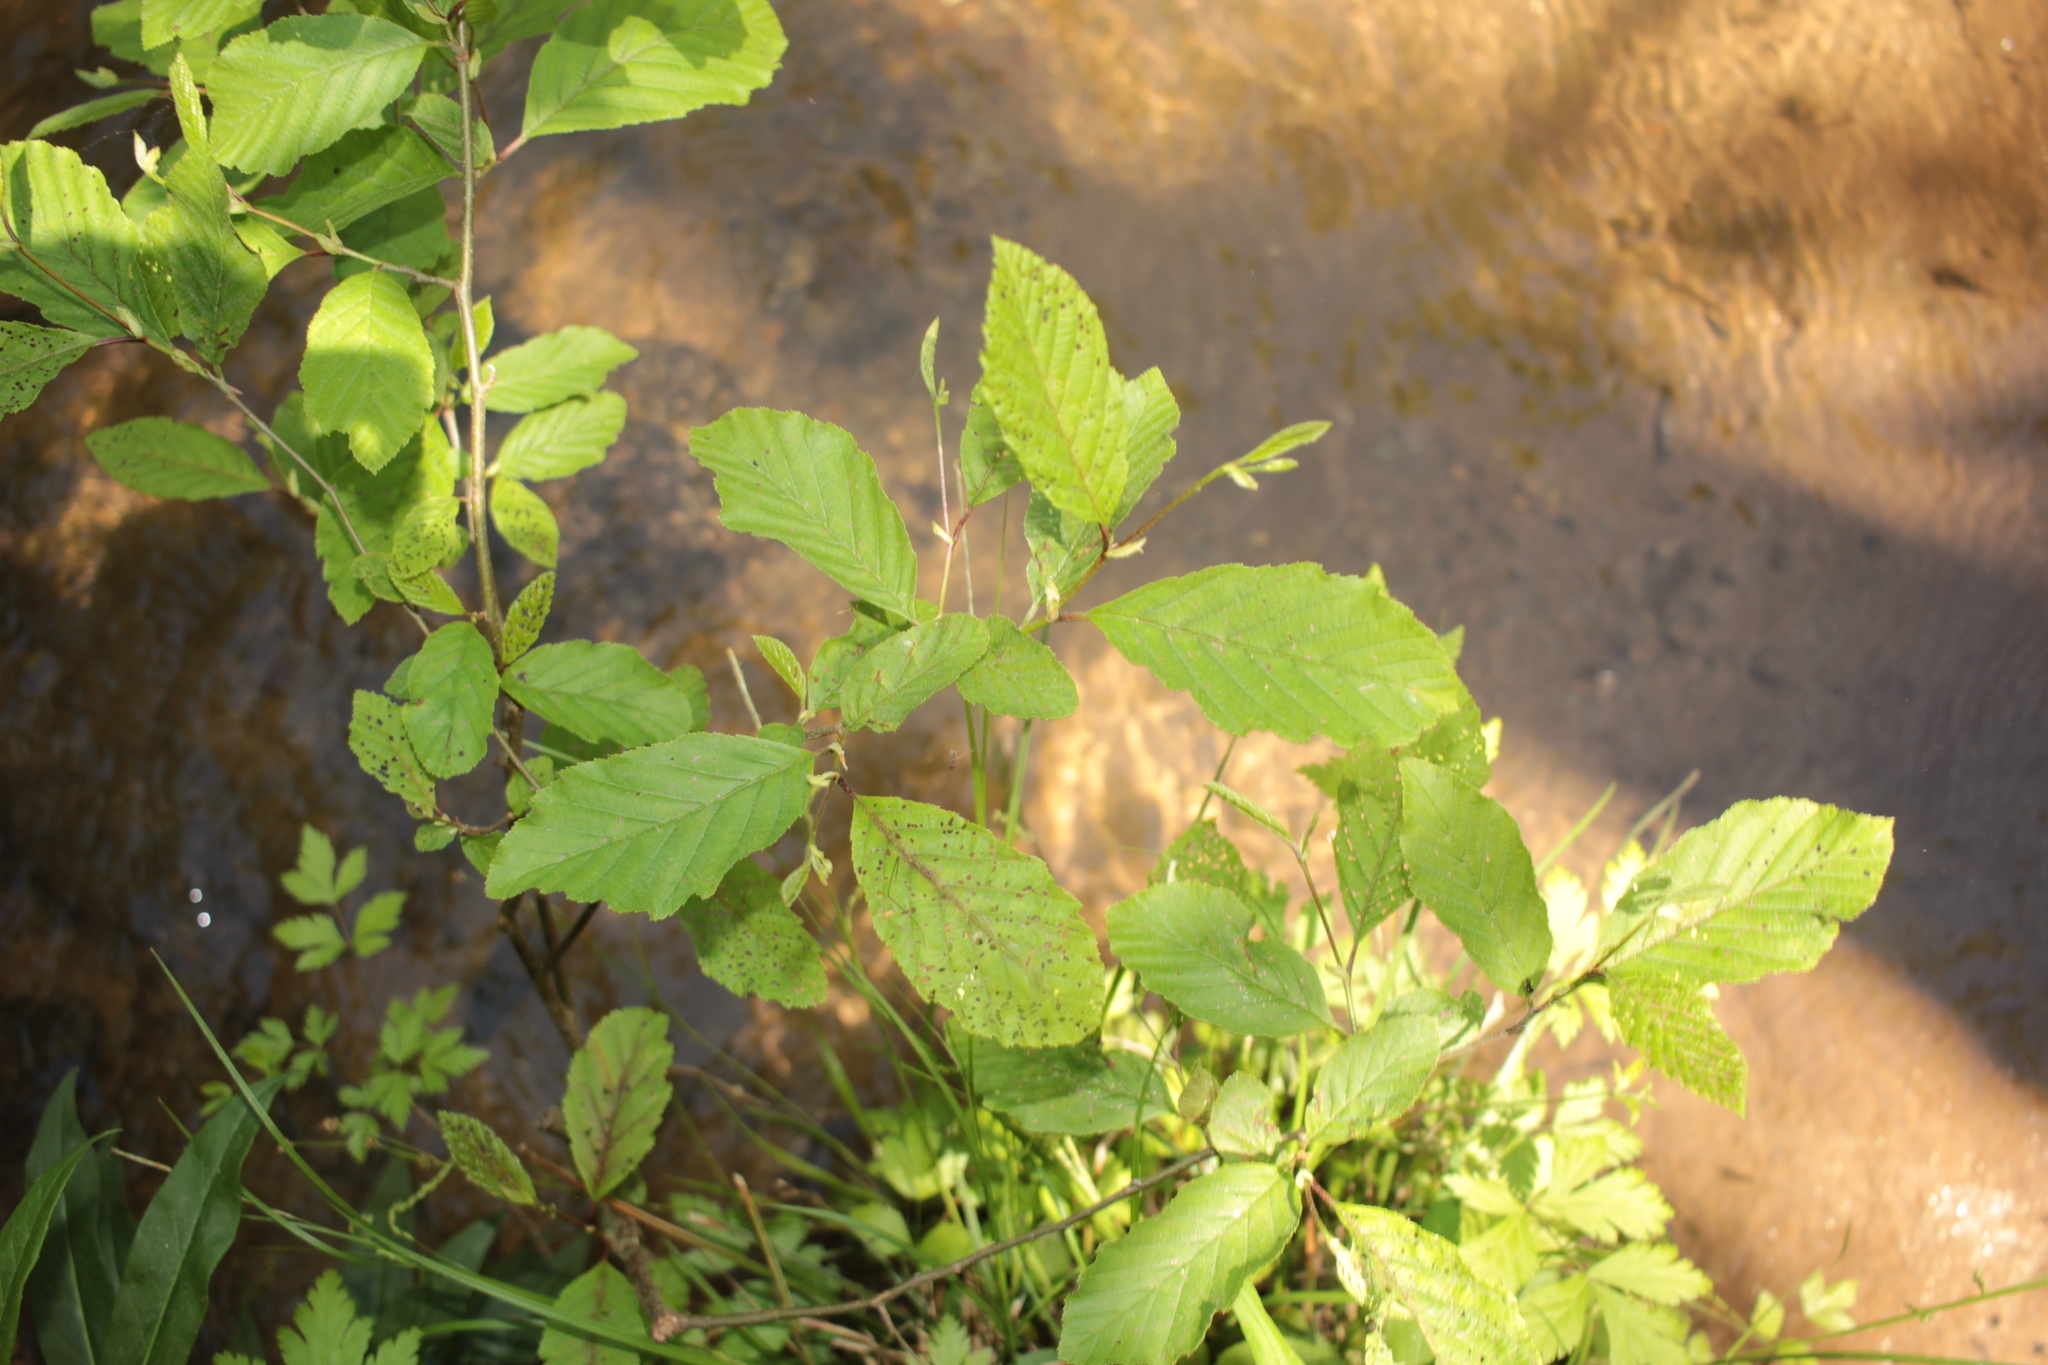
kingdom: Plantae
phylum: Tracheophyta
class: Magnoliopsida
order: Fagales
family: Betulaceae
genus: Alnus
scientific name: Alnus serrulata
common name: Hazel alder
